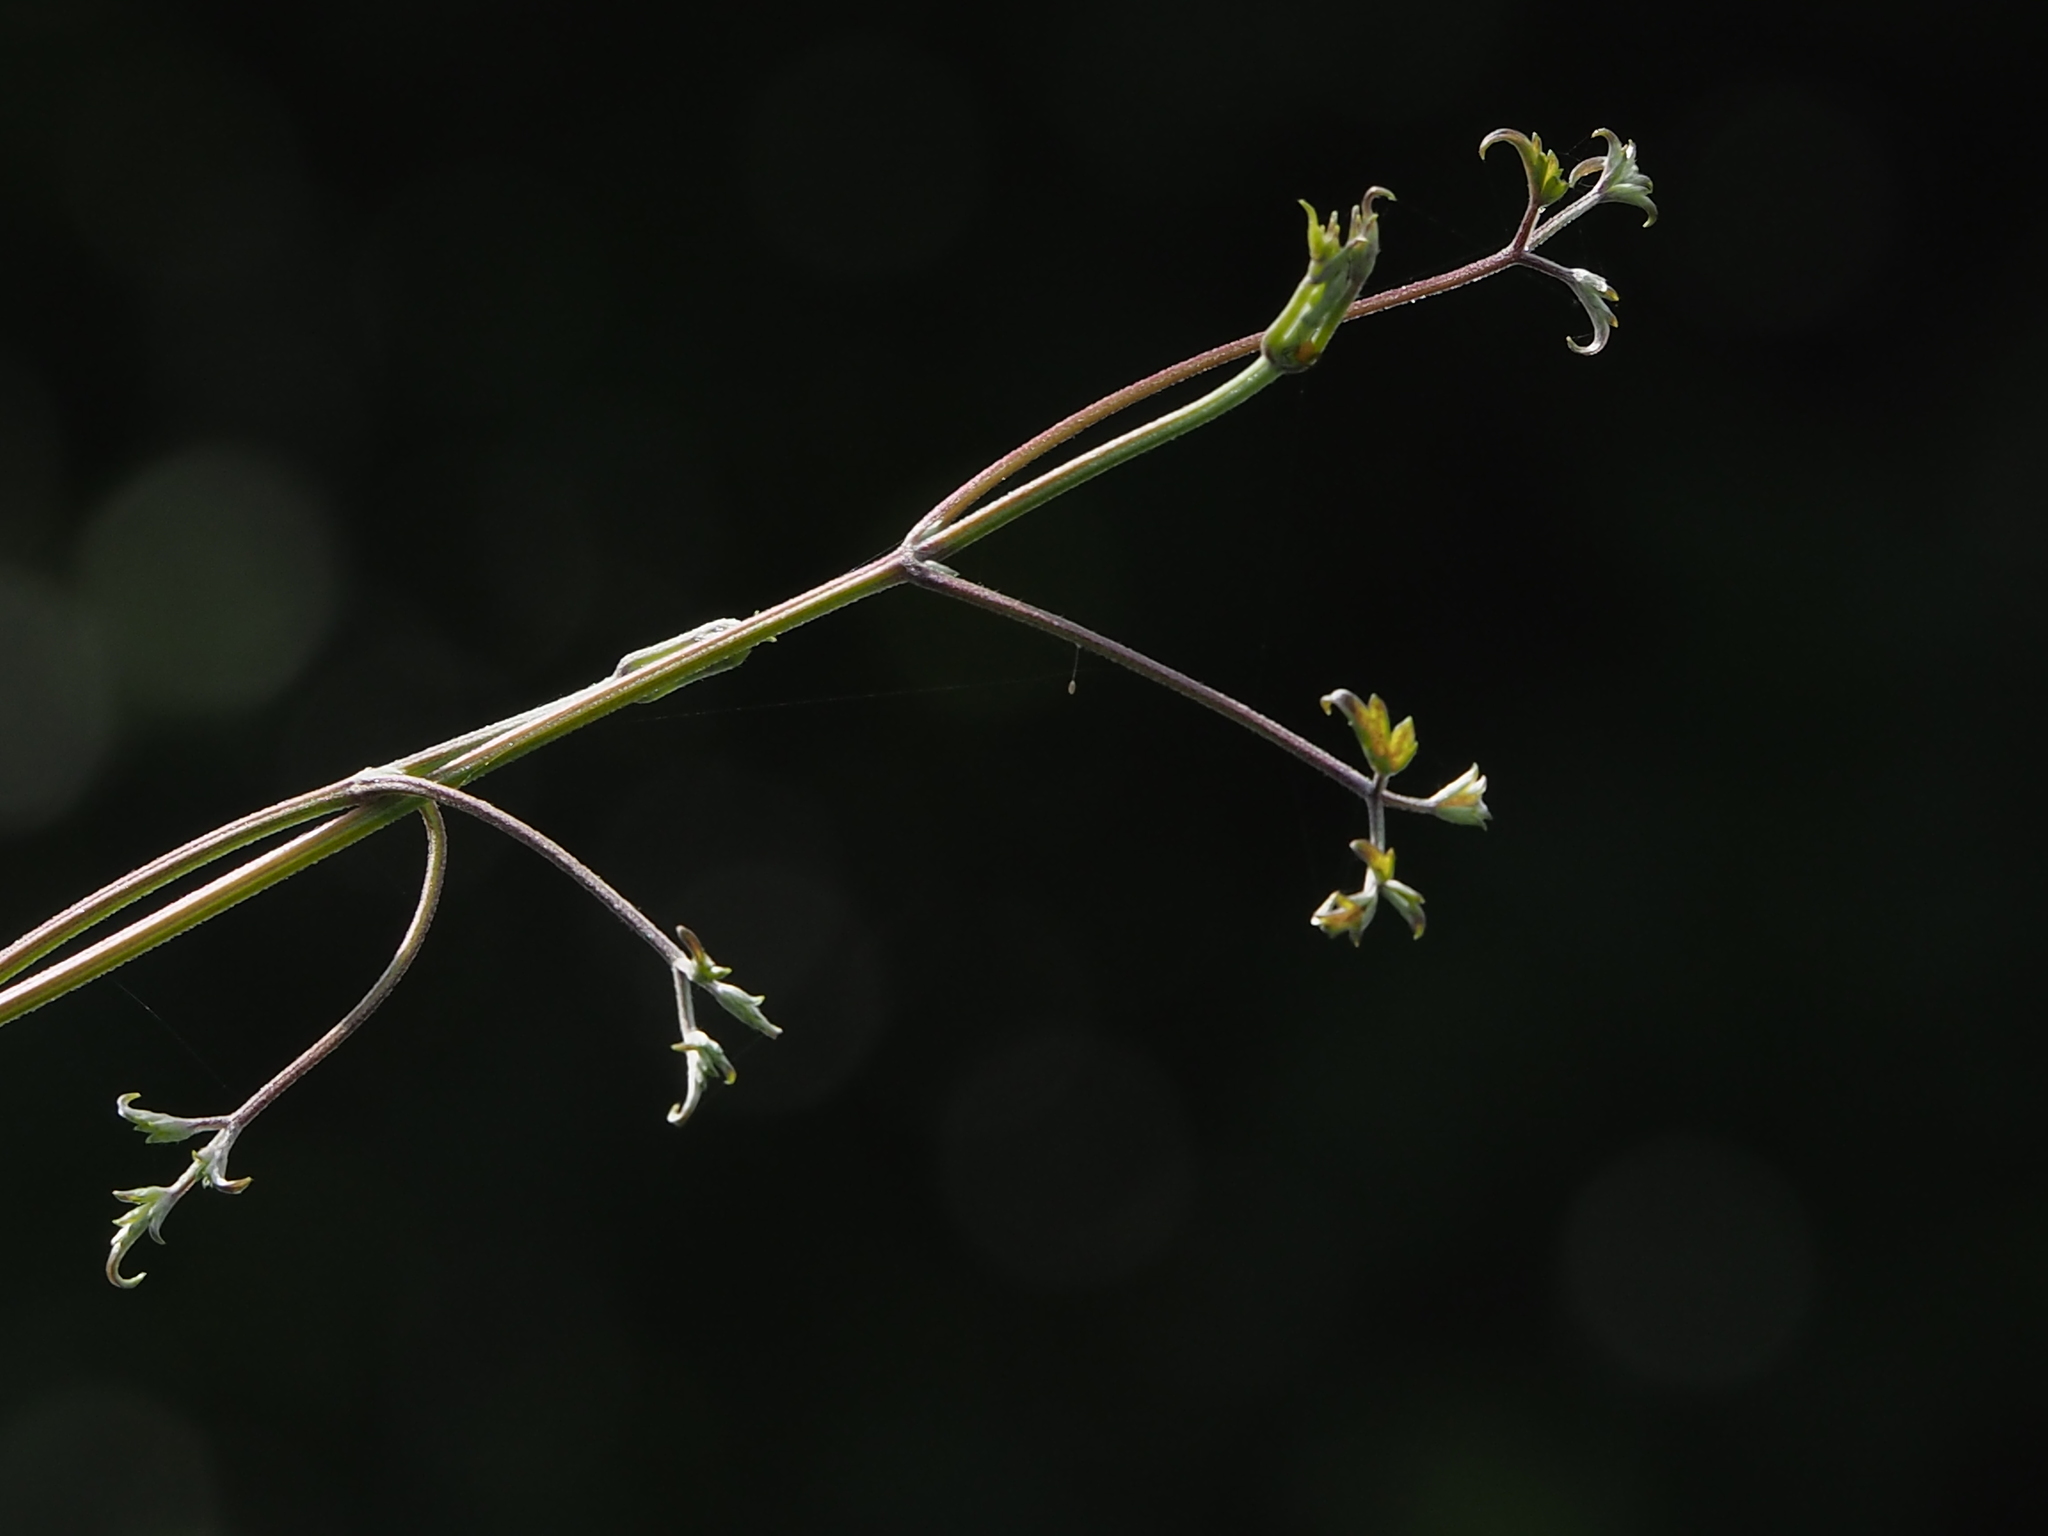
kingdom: Plantae
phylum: Tracheophyta
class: Magnoliopsida
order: Ranunculales
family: Ranunculaceae
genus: Clematis
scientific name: Clematis grata
